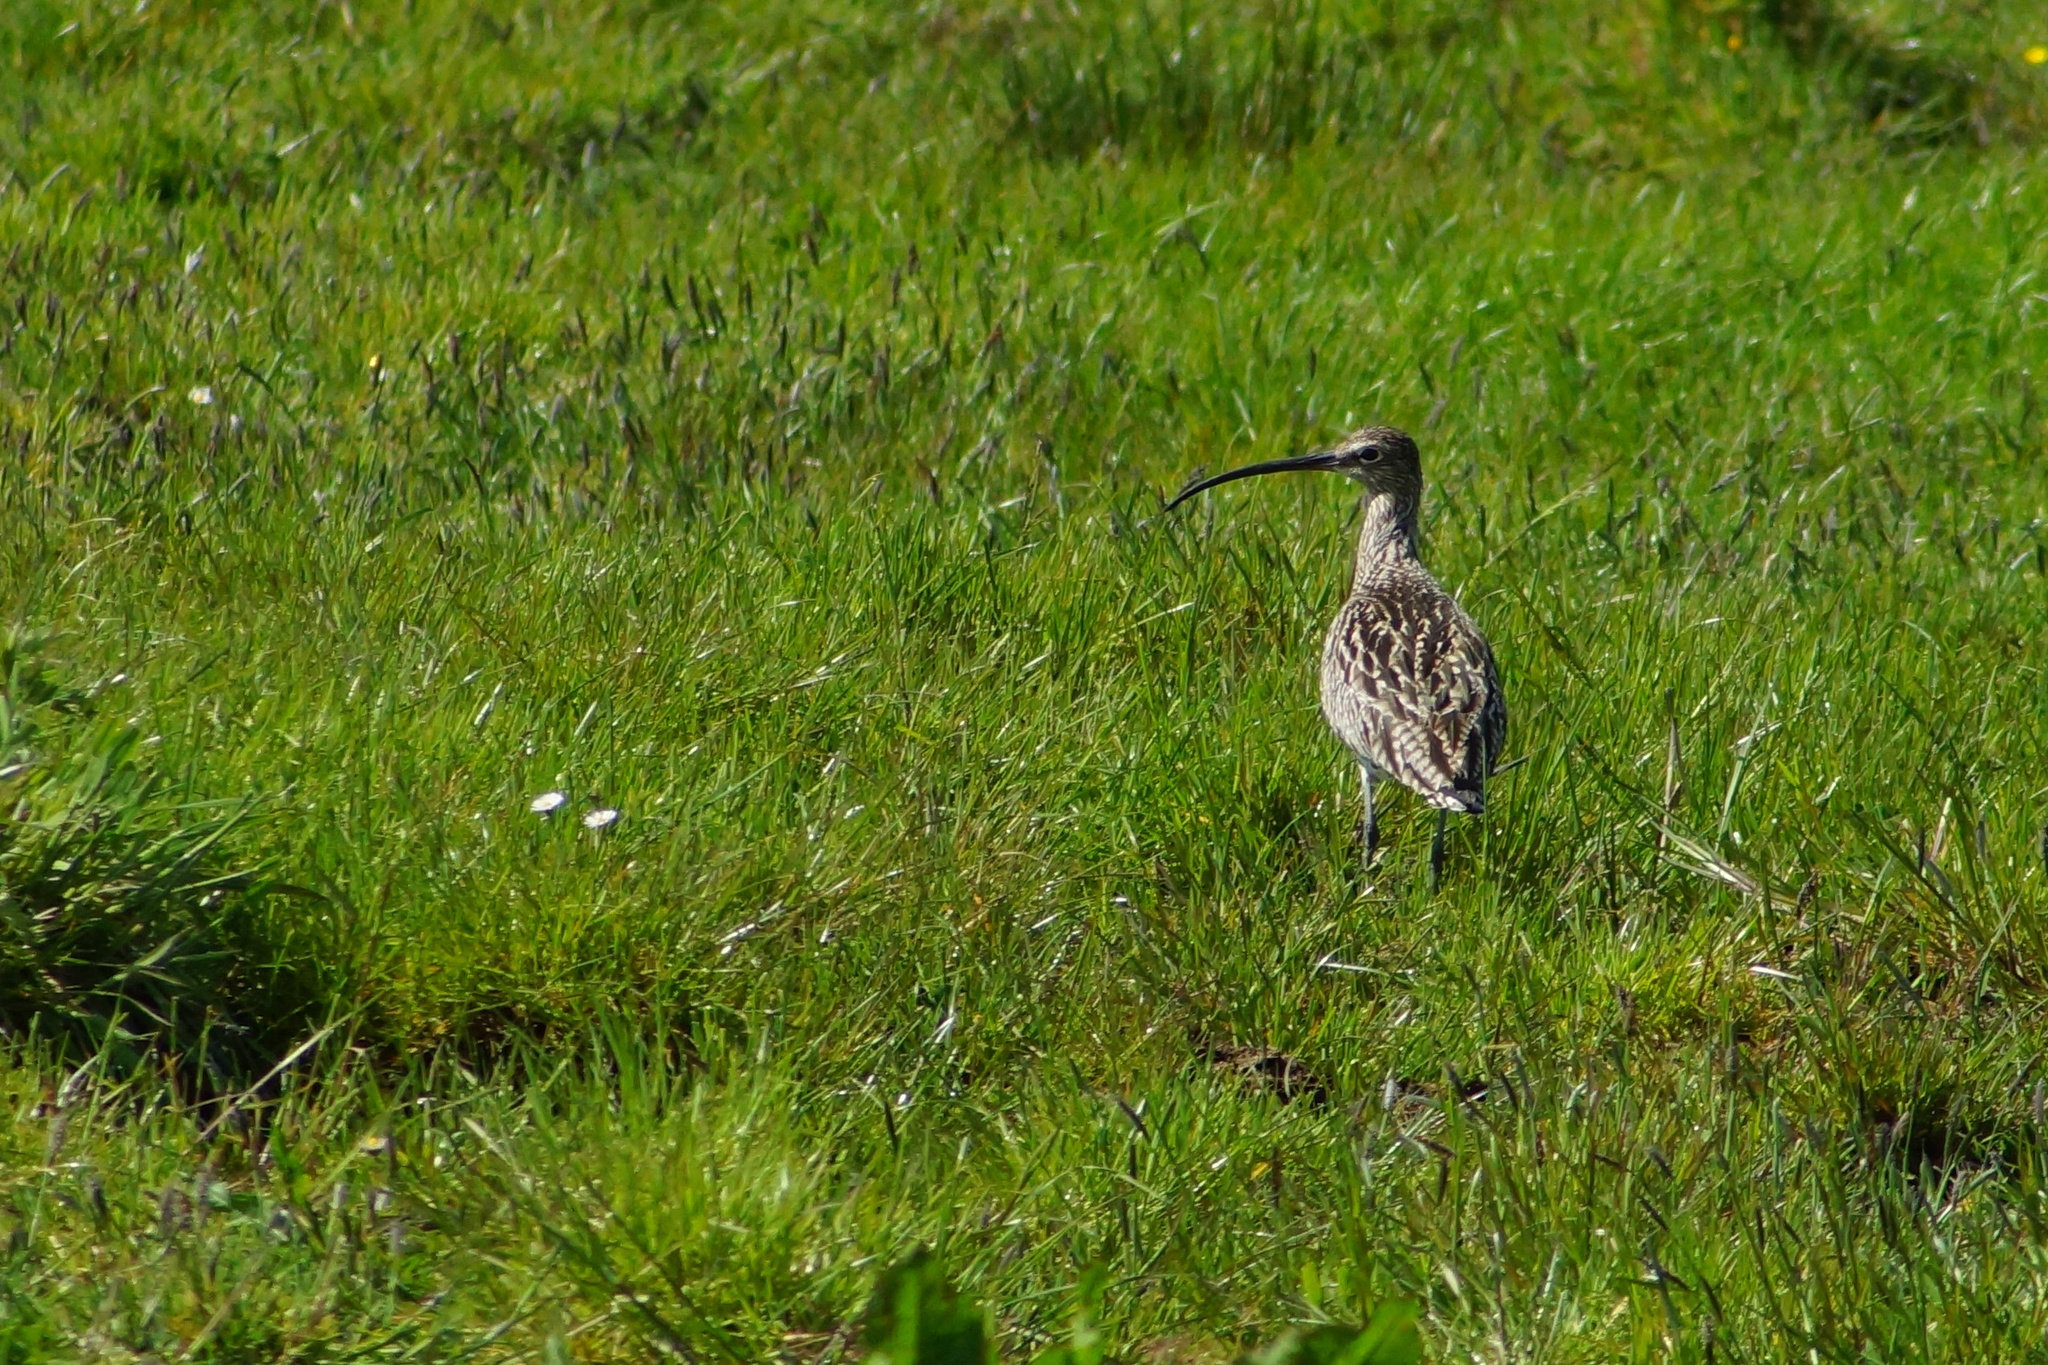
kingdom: Animalia
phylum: Chordata
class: Aves
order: Charadriiformes
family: Scolopacidae
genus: Numenius
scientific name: Numenius arquata
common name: Eurasian curlew
